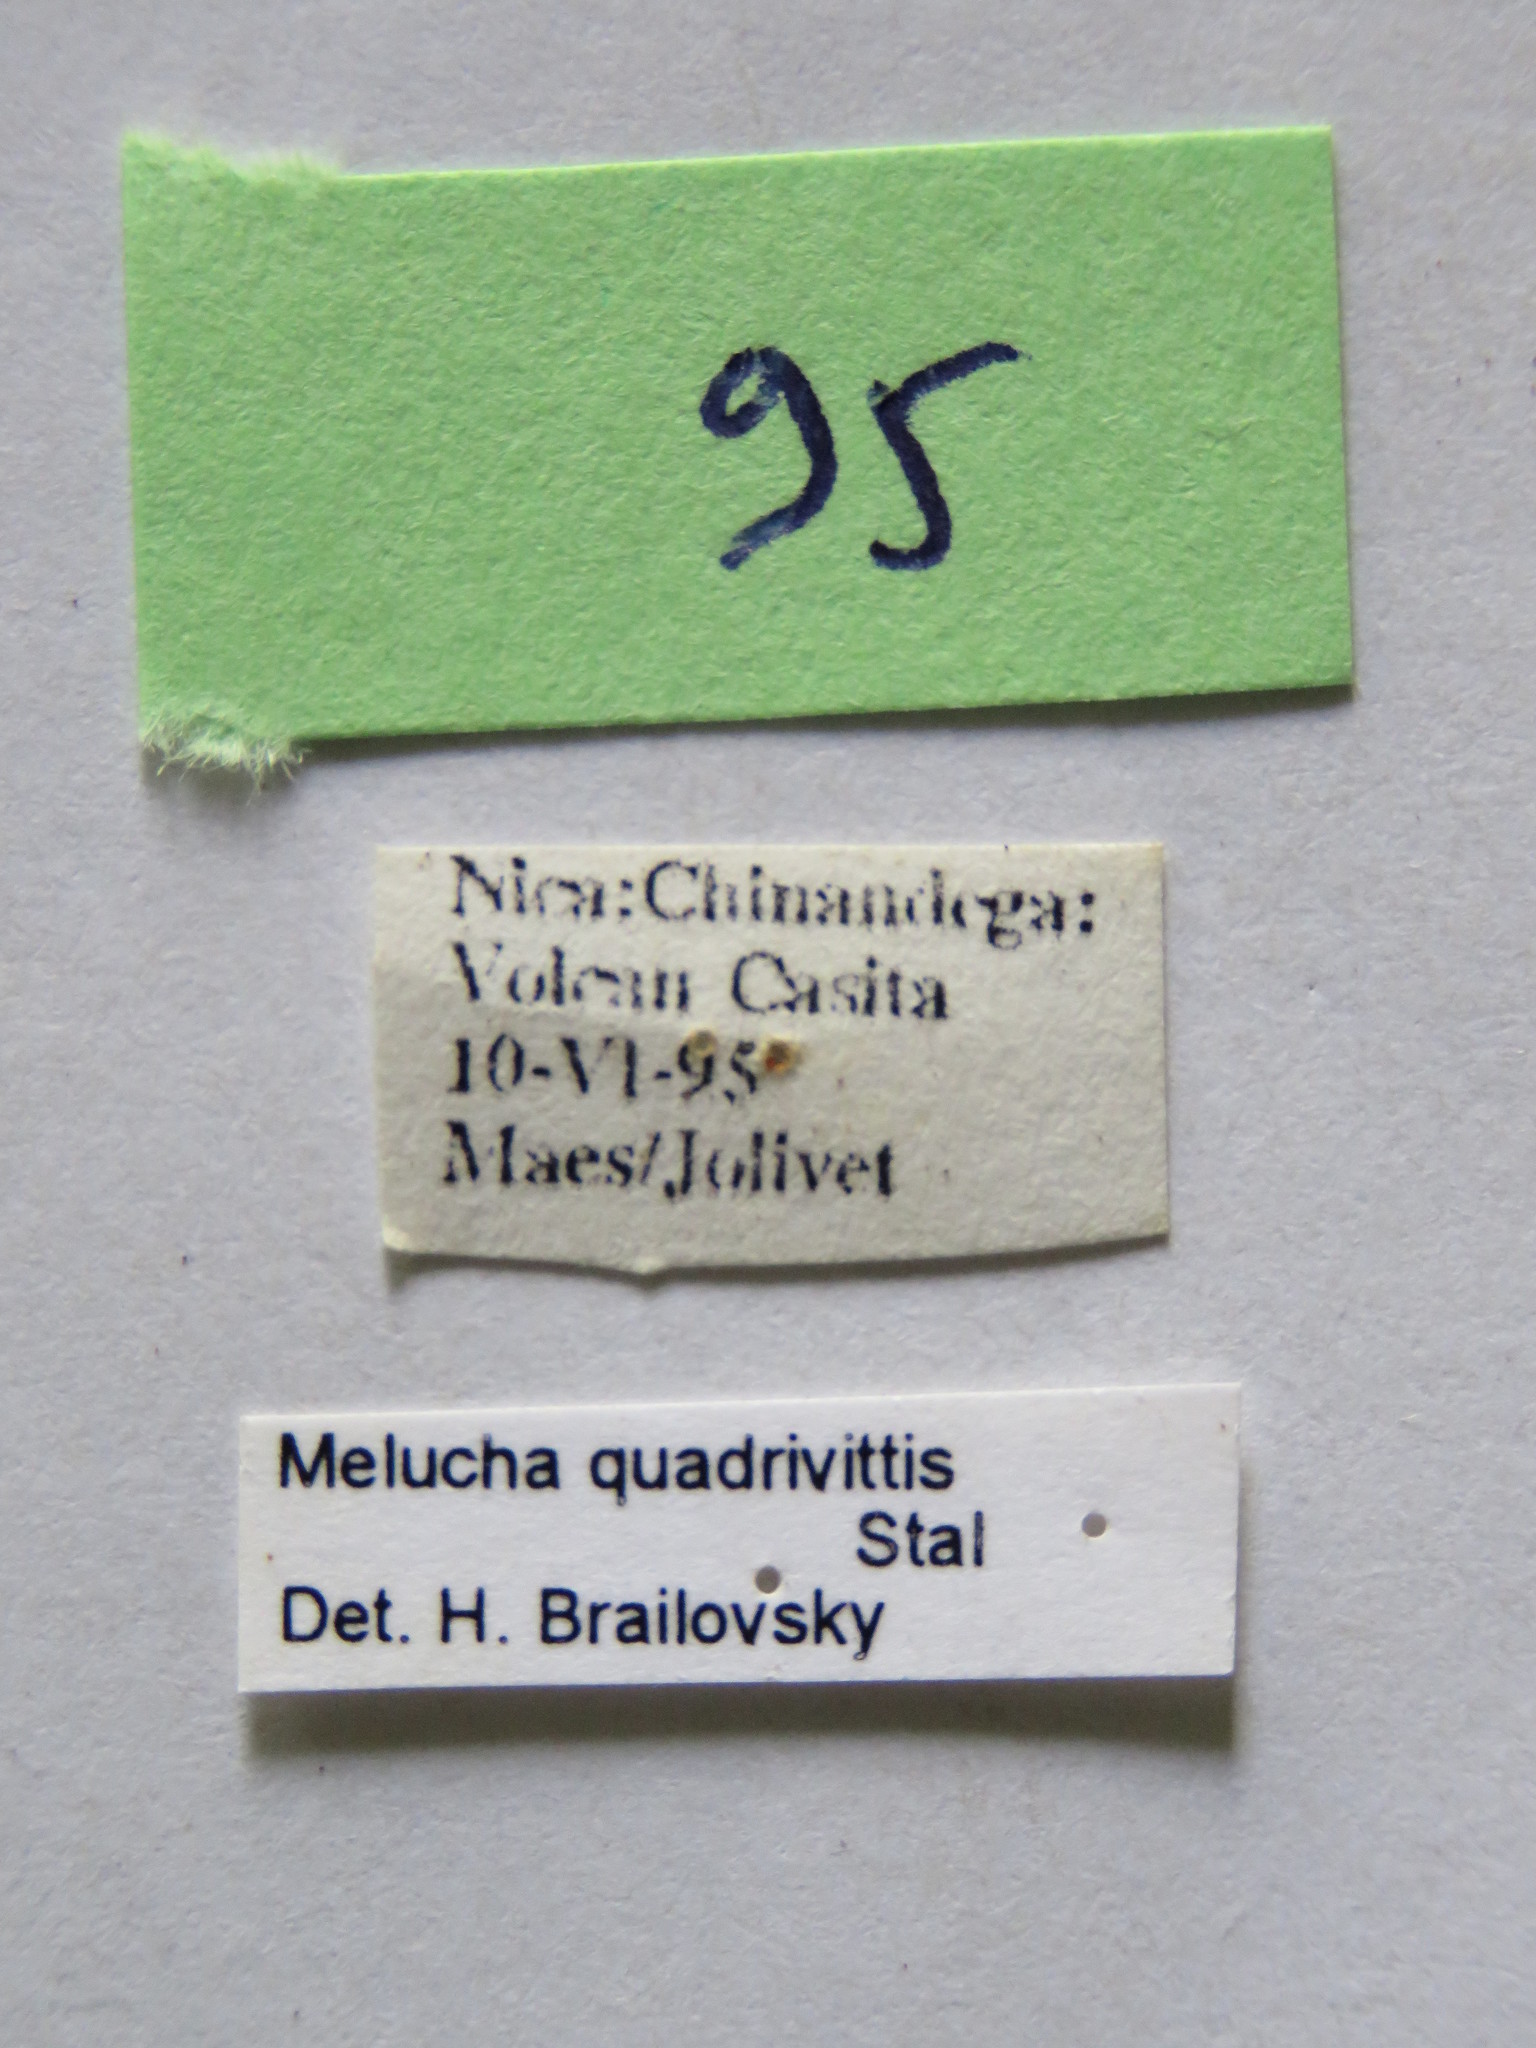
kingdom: Animalia
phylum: Arthropoda
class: Insecta
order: Hemiptera
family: Coreidae
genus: Melucha
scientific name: Melucha quadrivittis
